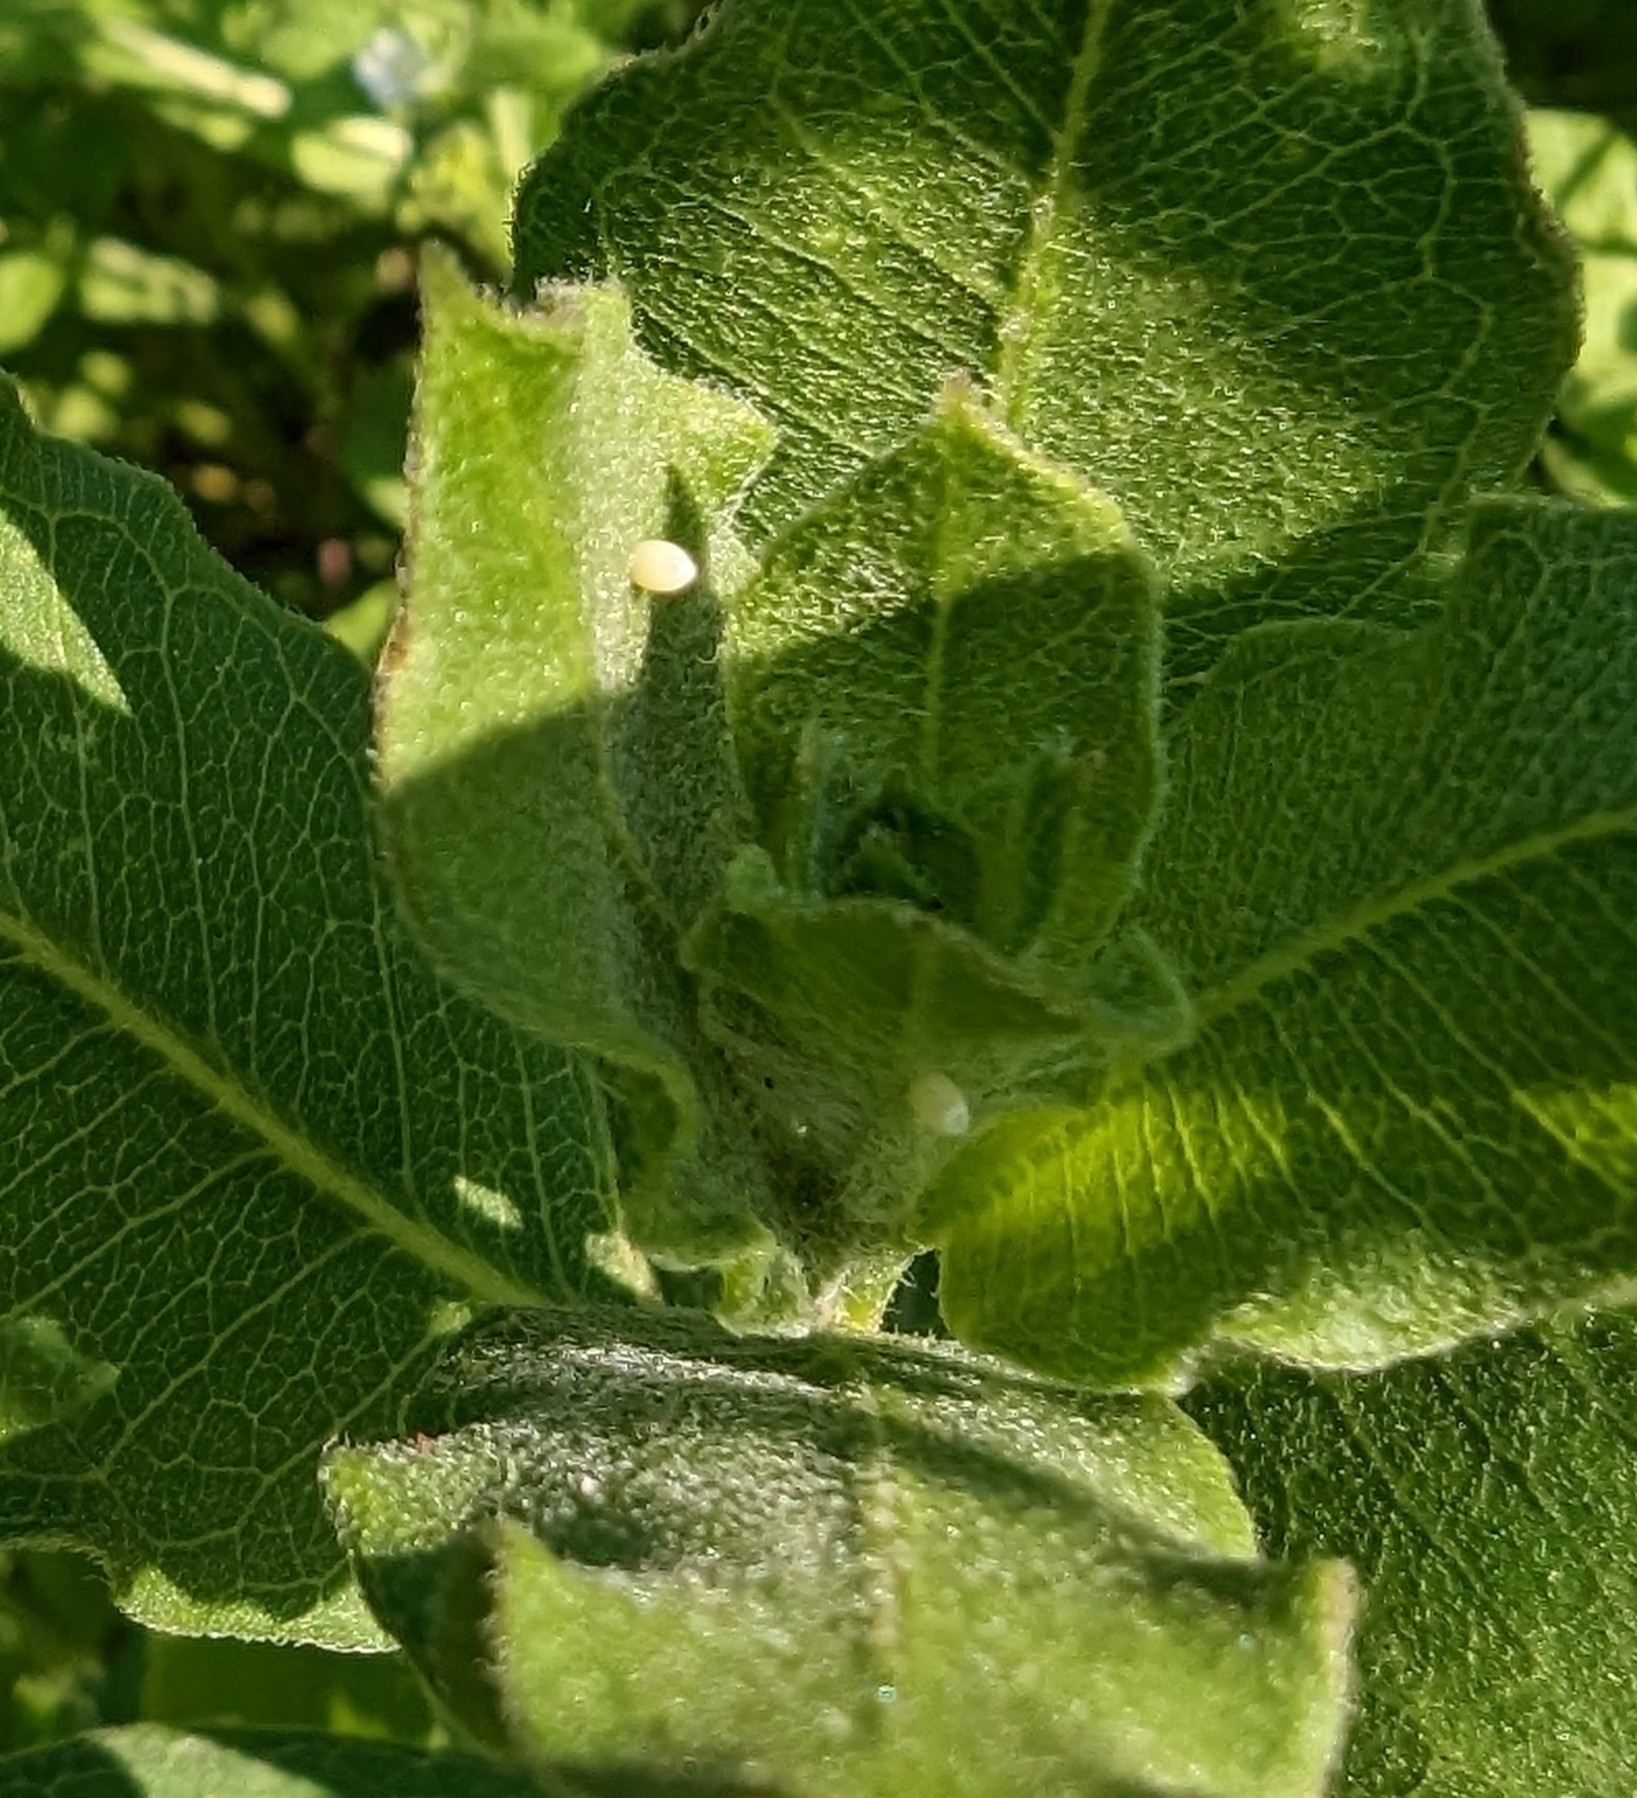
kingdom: Animalia
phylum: Arthropoda
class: Insecta
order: Lepidoptera
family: Nymphalidae
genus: Danaus
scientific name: Danaus plexippus
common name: Monarch
